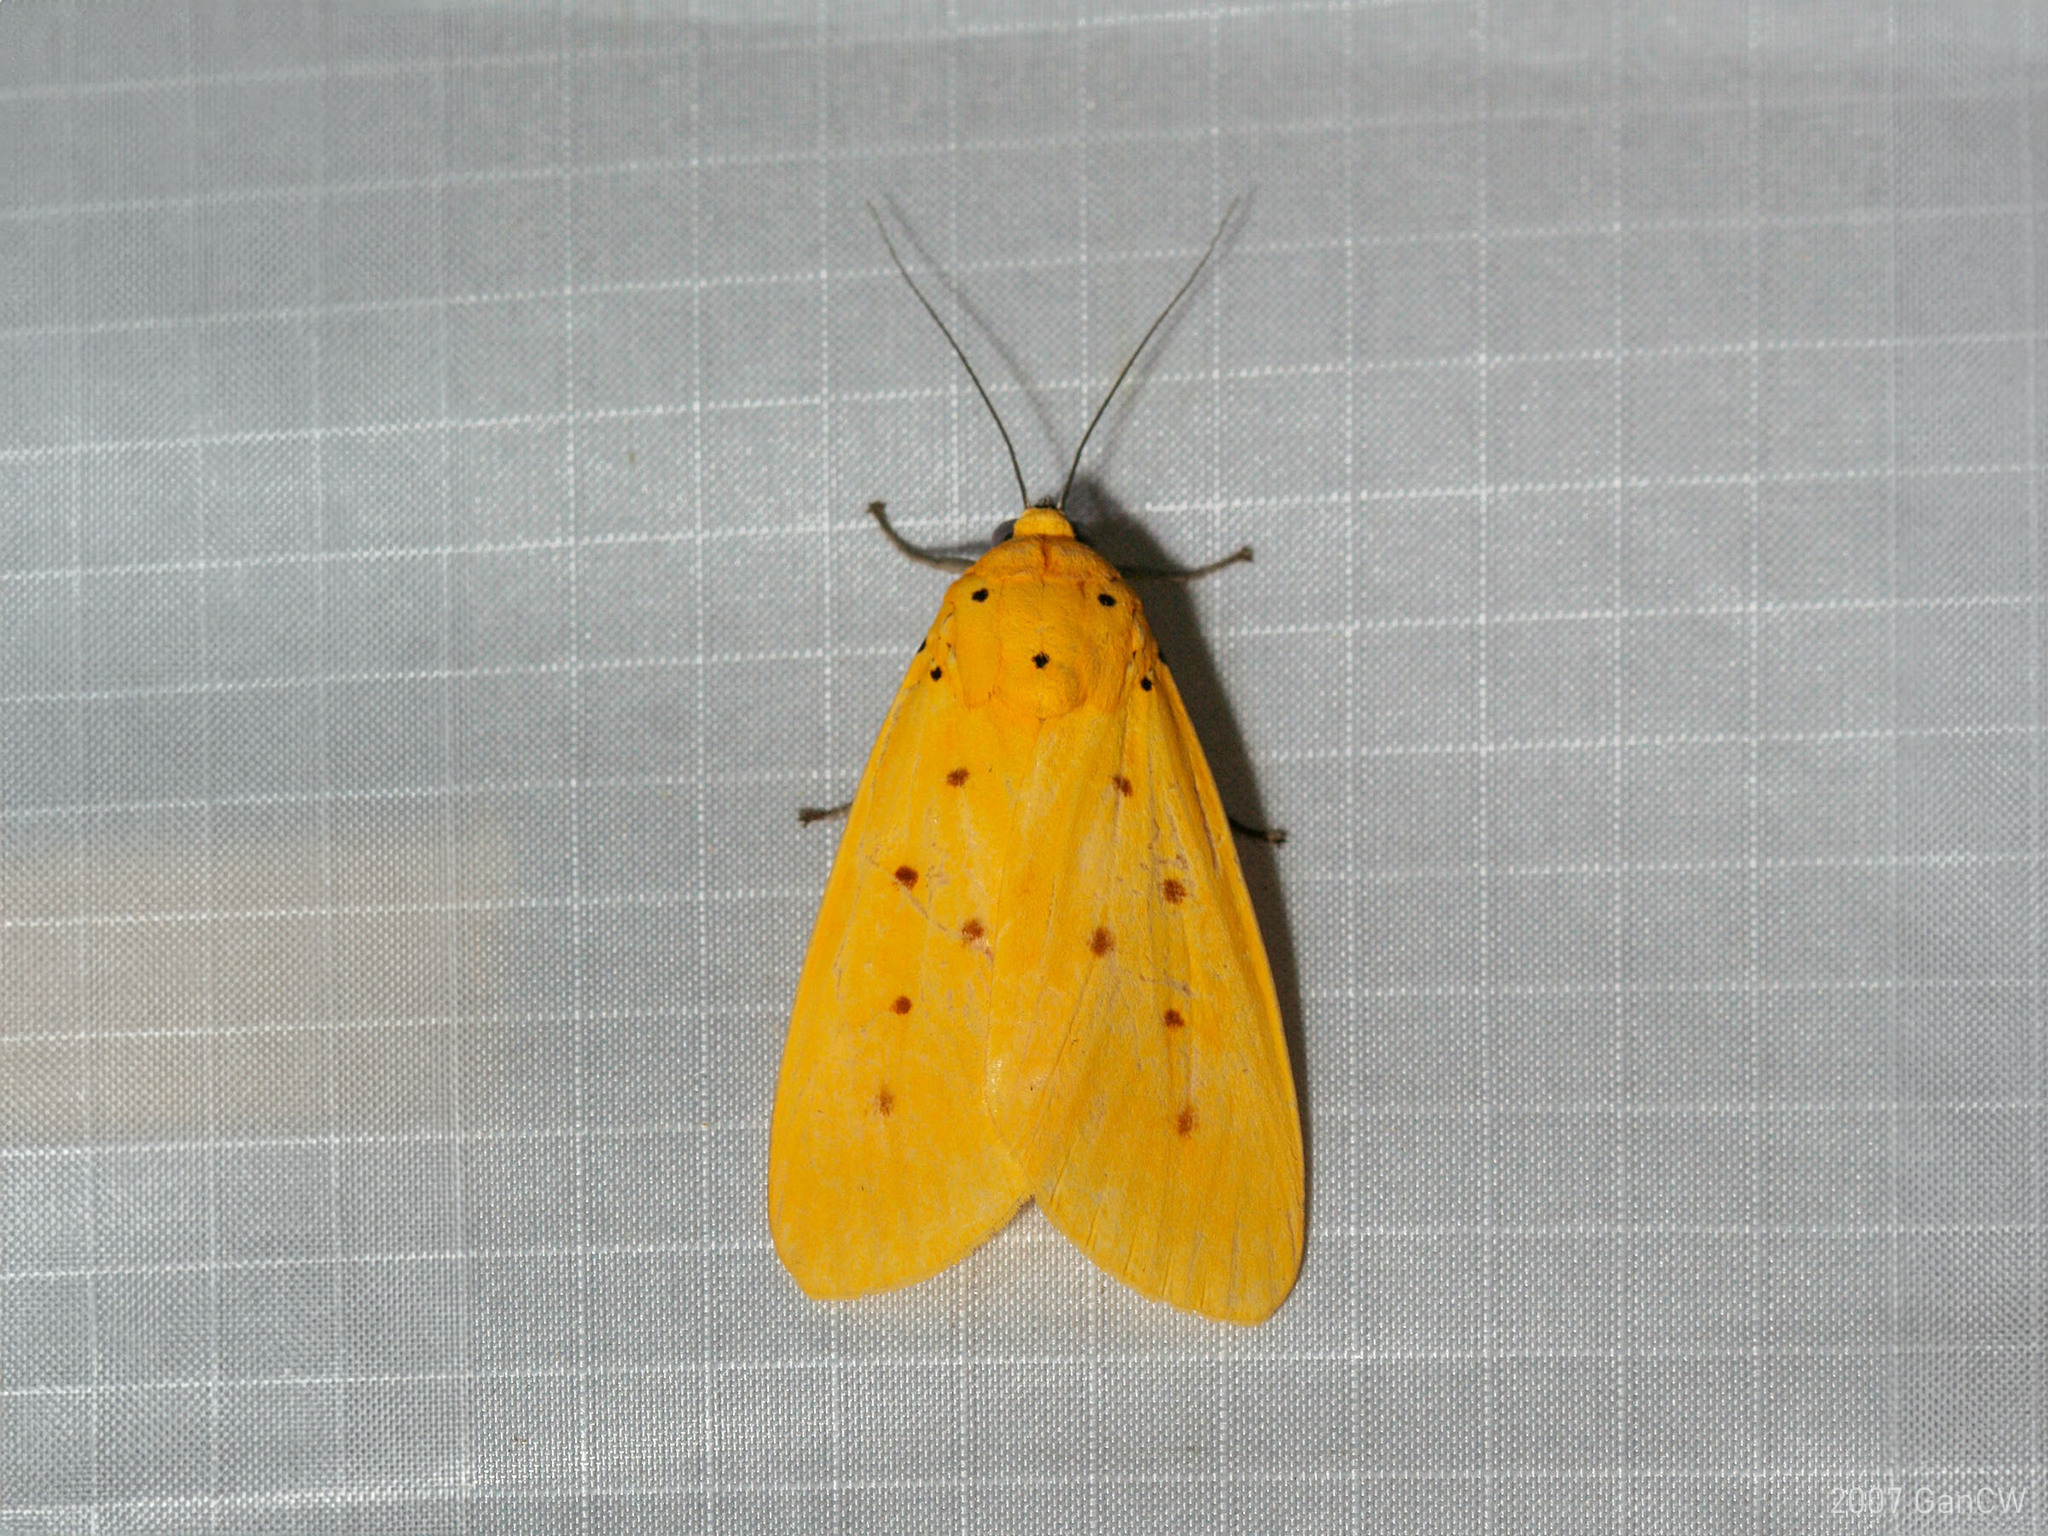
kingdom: Animalia
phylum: Arthropoda
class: Insecta
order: Lepidoptera
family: Noctuidae
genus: Agape
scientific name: Agape chloropyga
